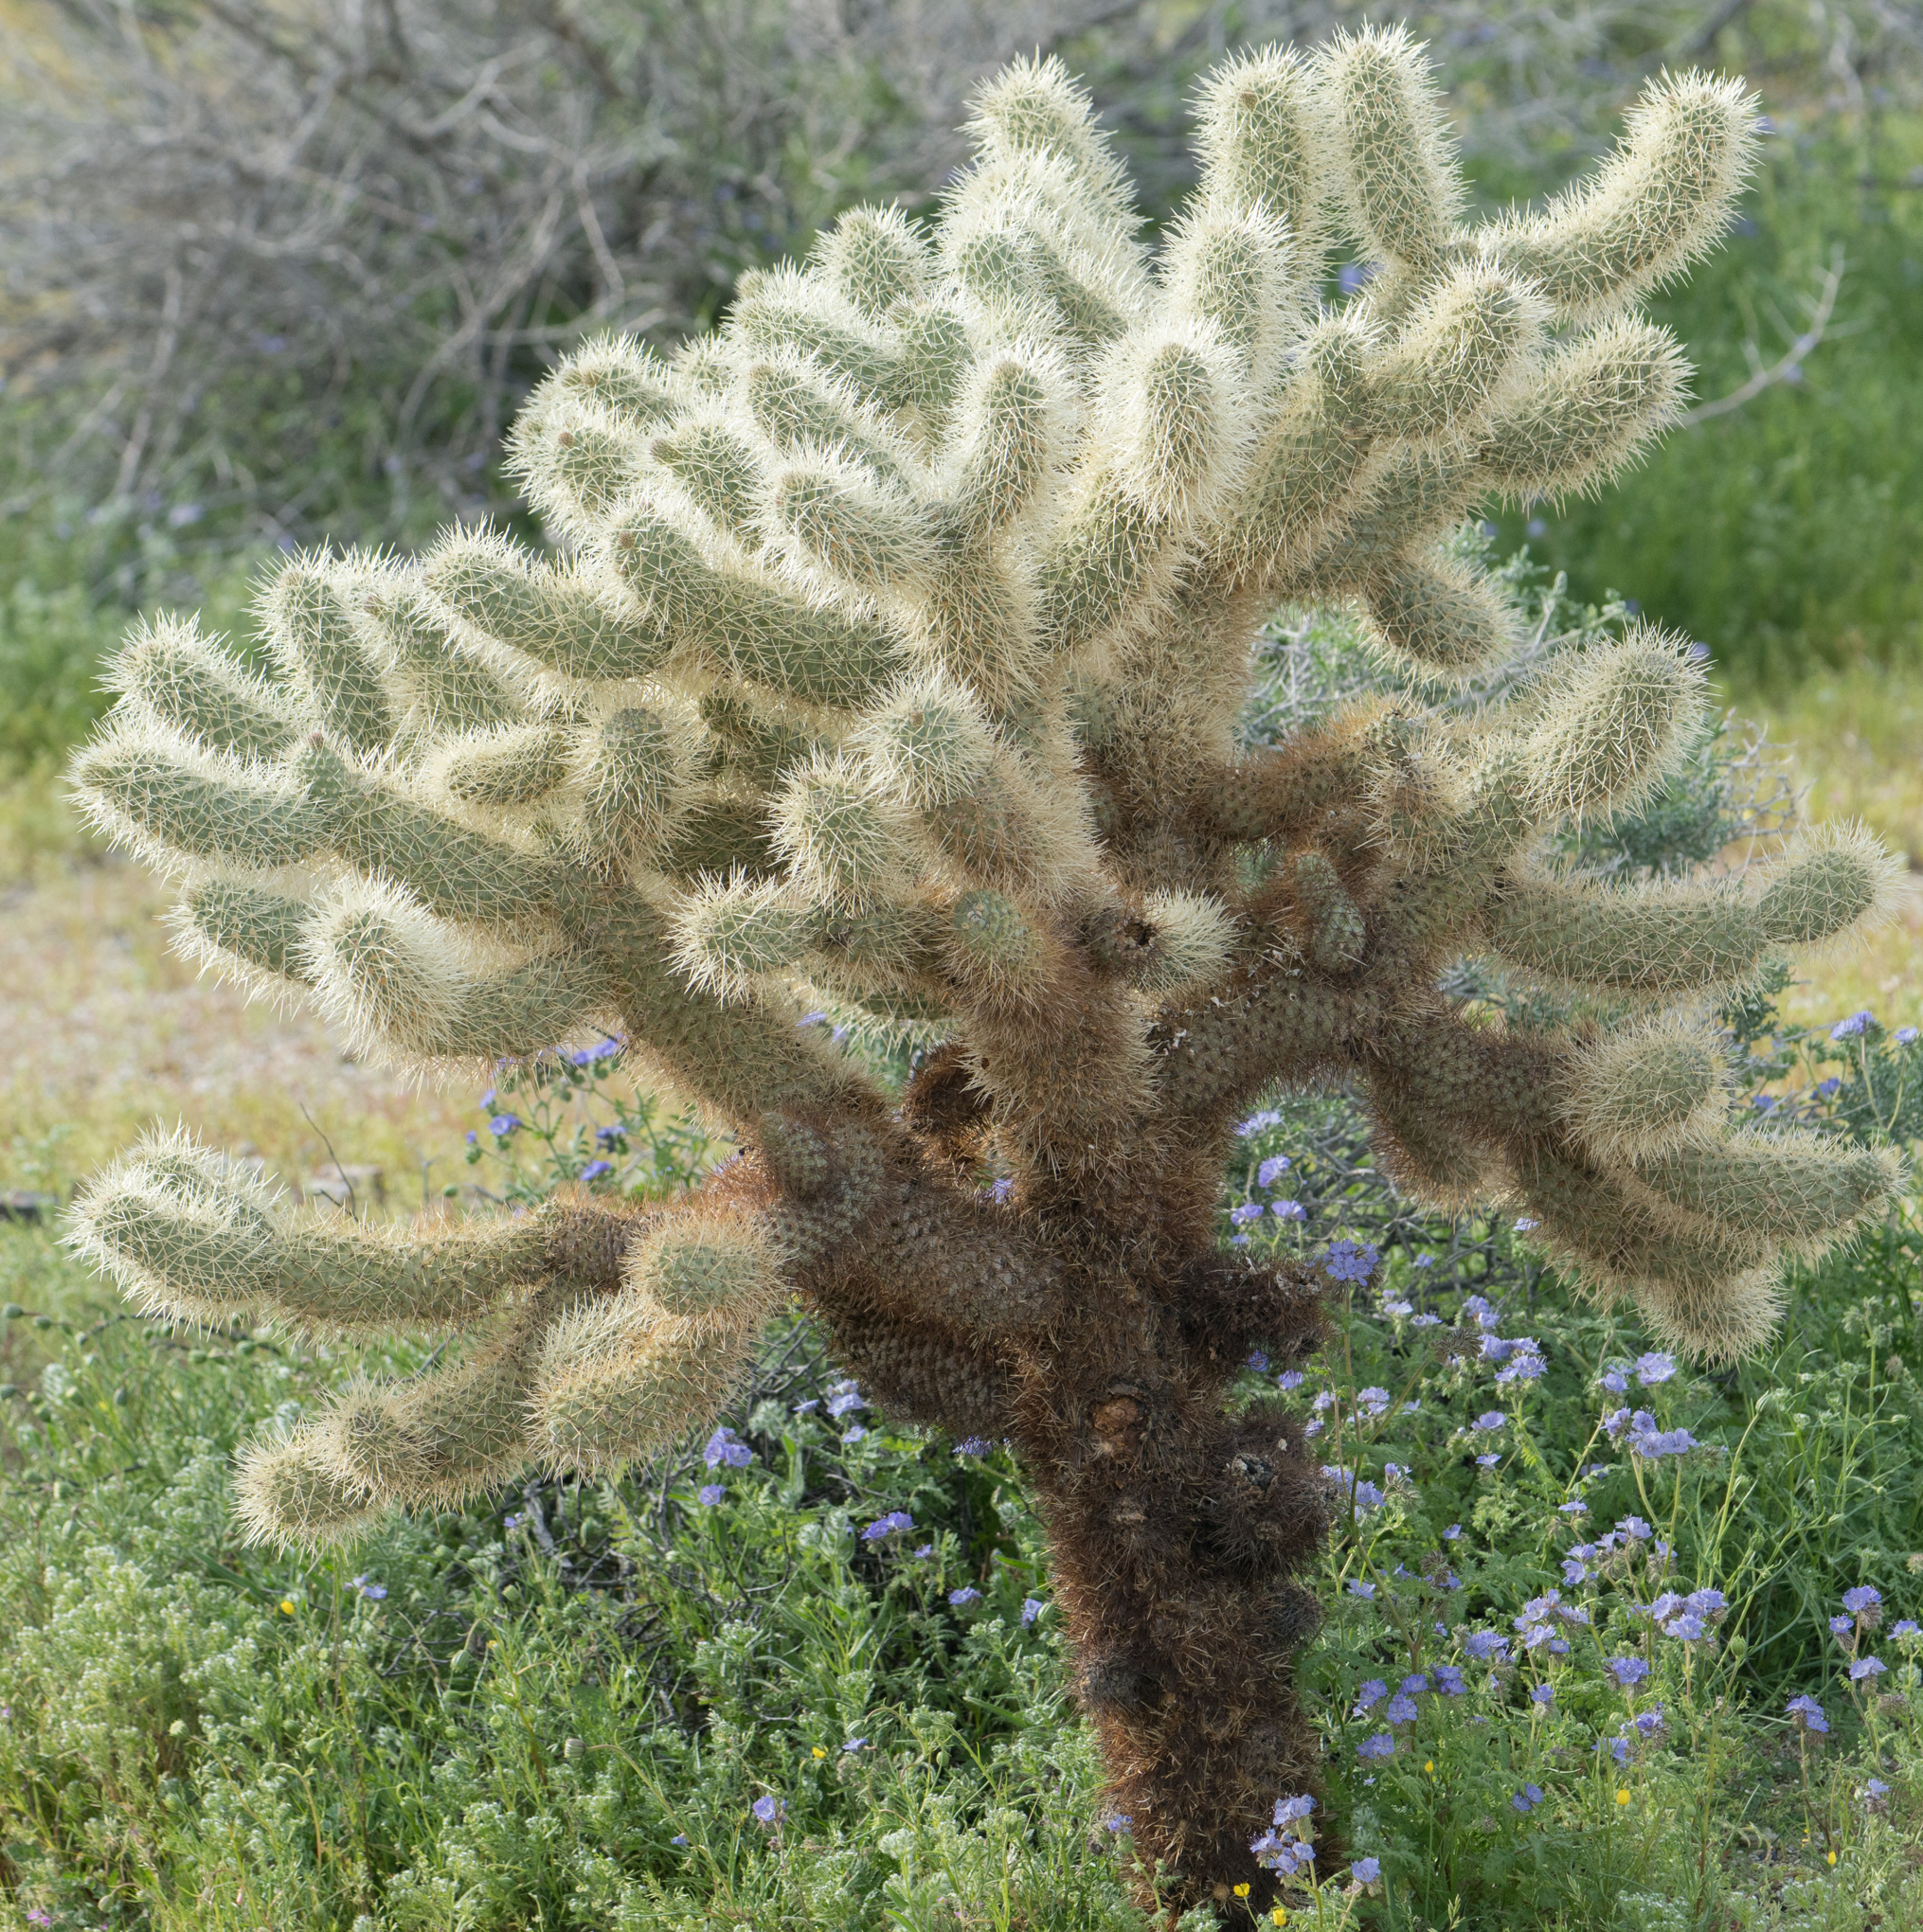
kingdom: Plantae
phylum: Tracheophyta
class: Magnoliopsida
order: Caryophyllales
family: Cactaceae
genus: Cylindropuntia
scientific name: Cylindropuntia fosbergii
